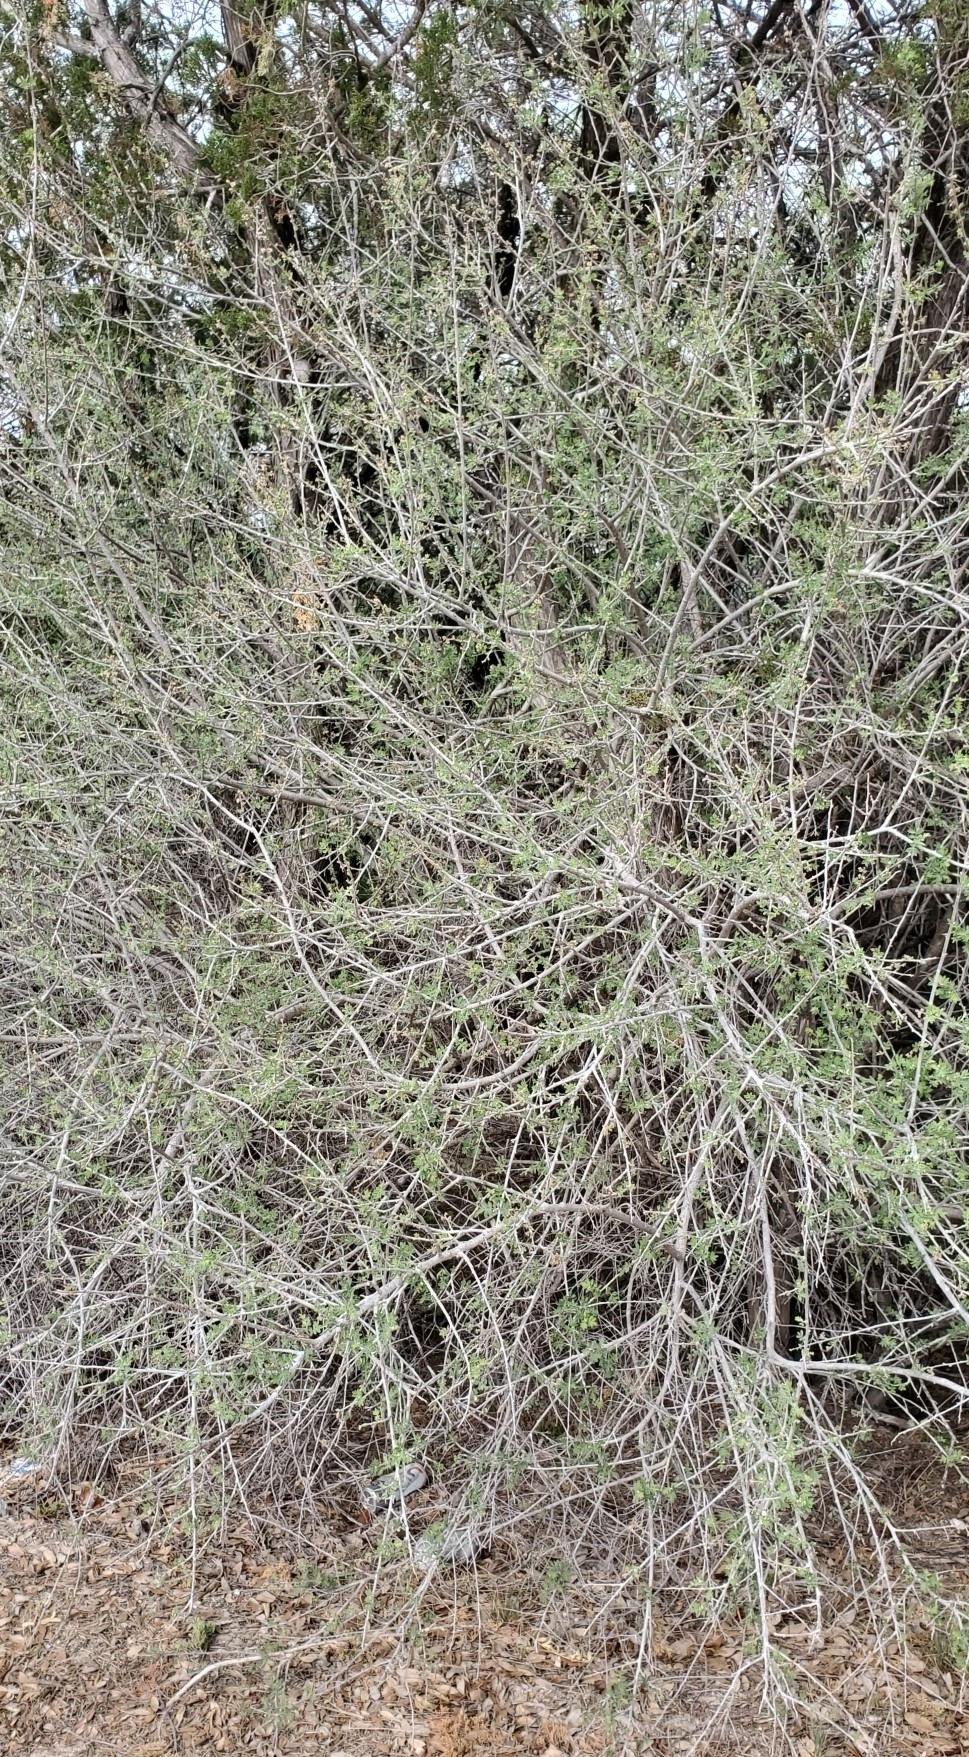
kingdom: Plantae
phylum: Tracheophyta
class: Magnoliopsida
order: Sapindales
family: Anacardiaceae
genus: Rhus
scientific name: Rhus microphylla
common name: Desert sumac
